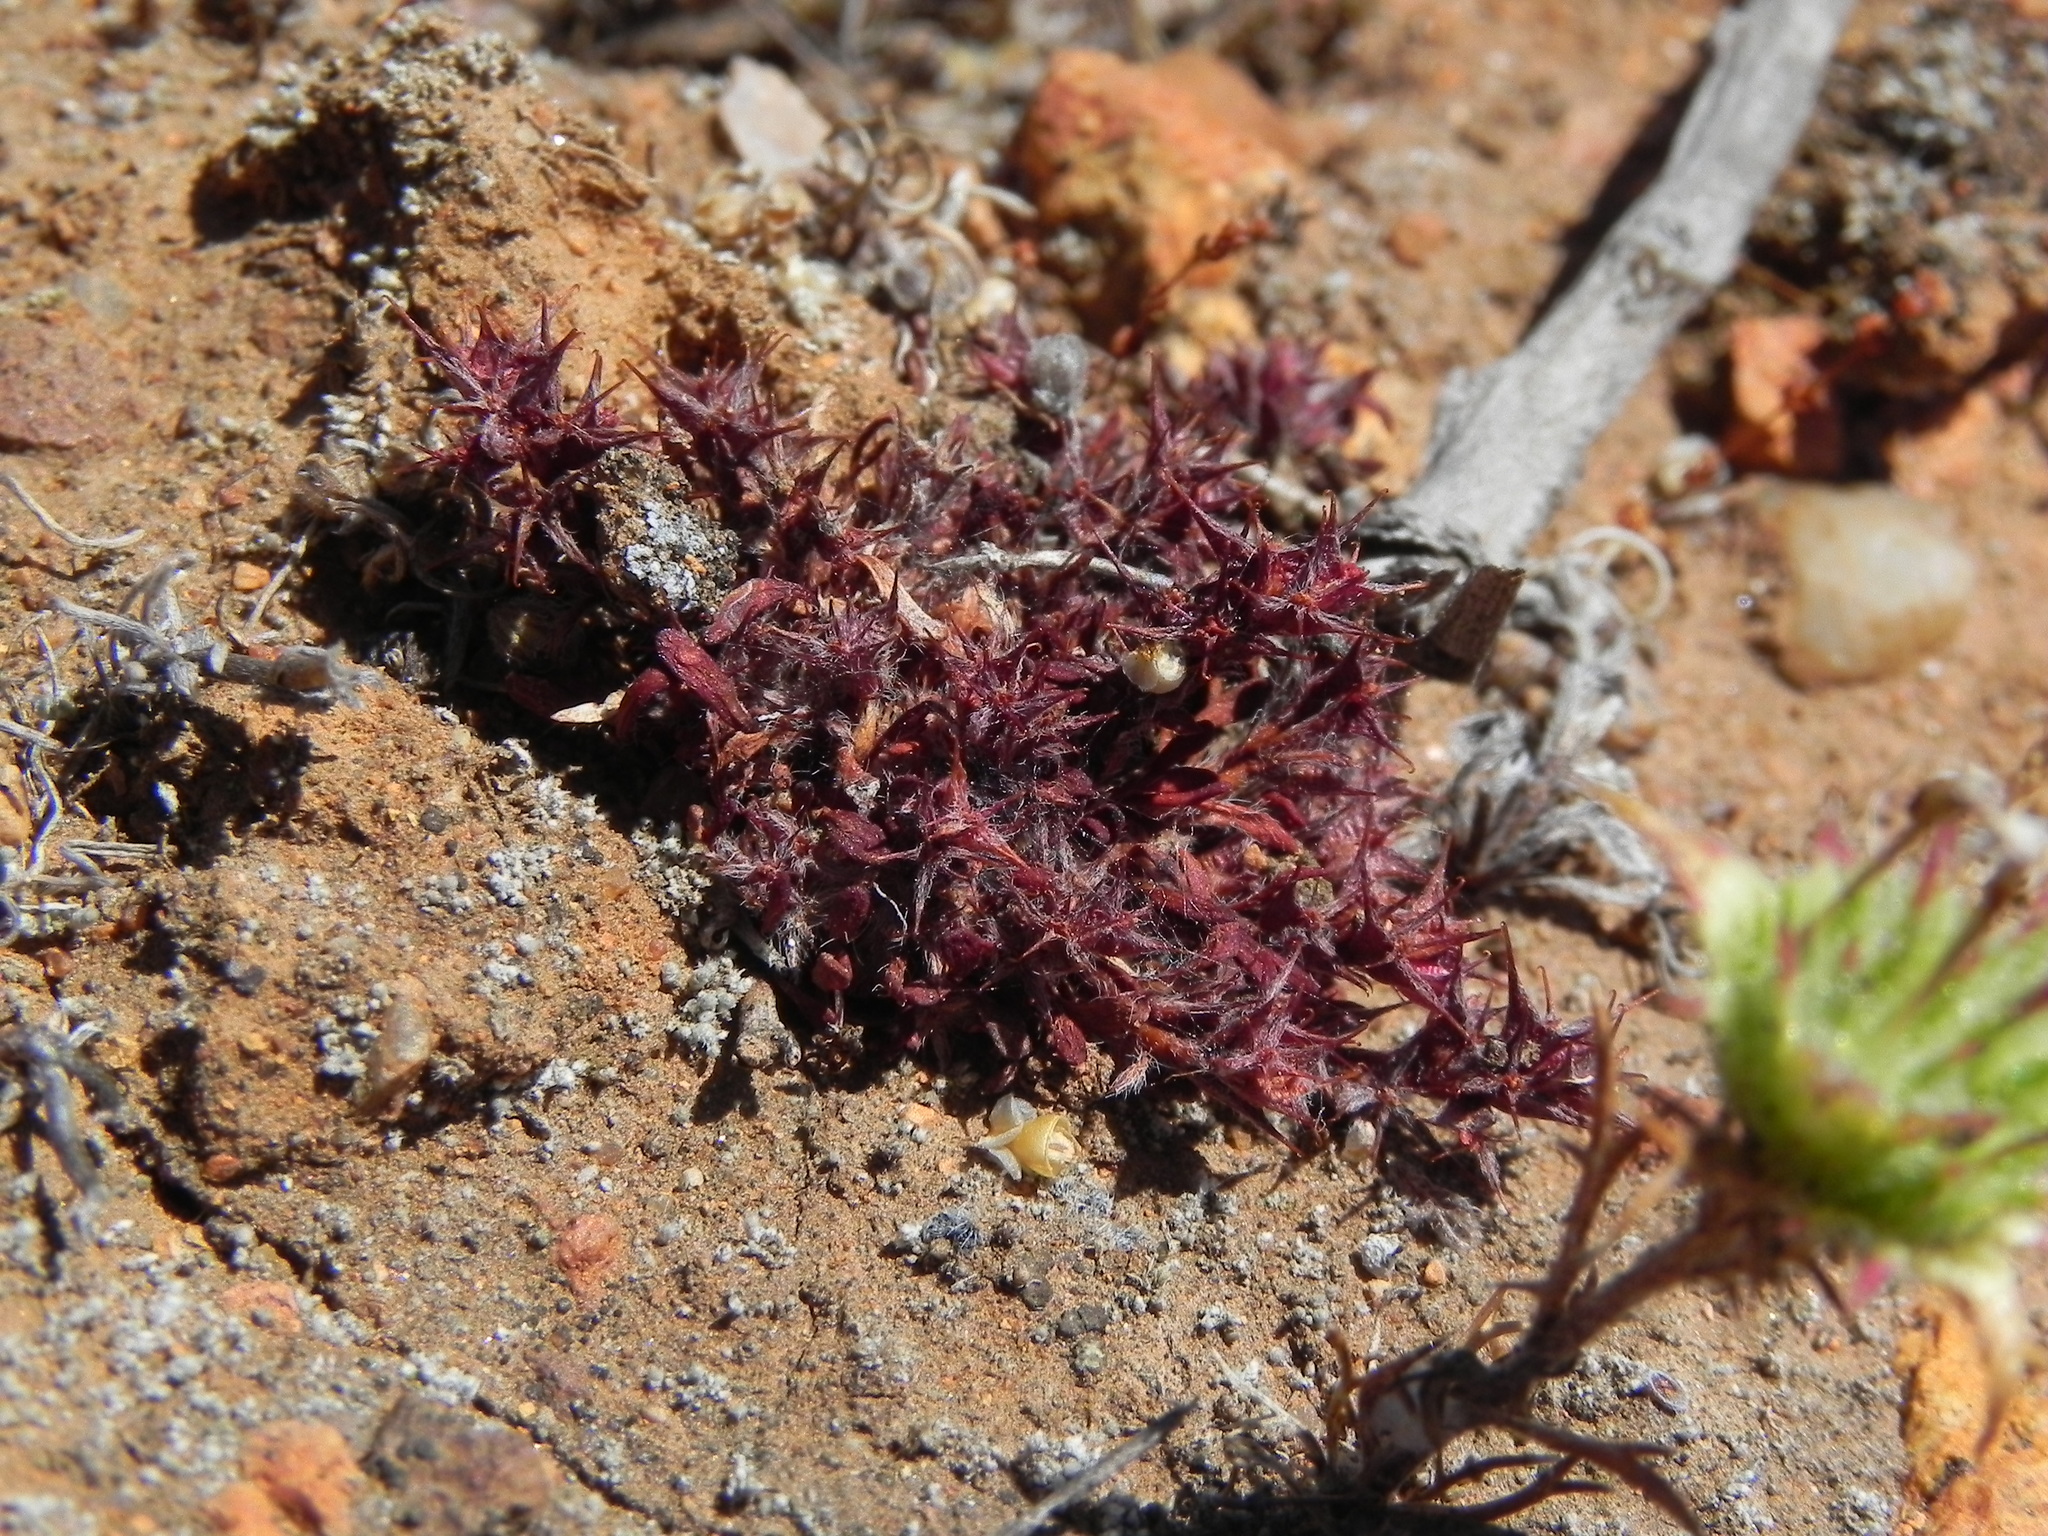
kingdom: Plantae
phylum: Tracheophyta
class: Magnoliopsida
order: Caryophyllales
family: Polygonaceae
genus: Chorizanthe
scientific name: Chorizanthe polygonoides
